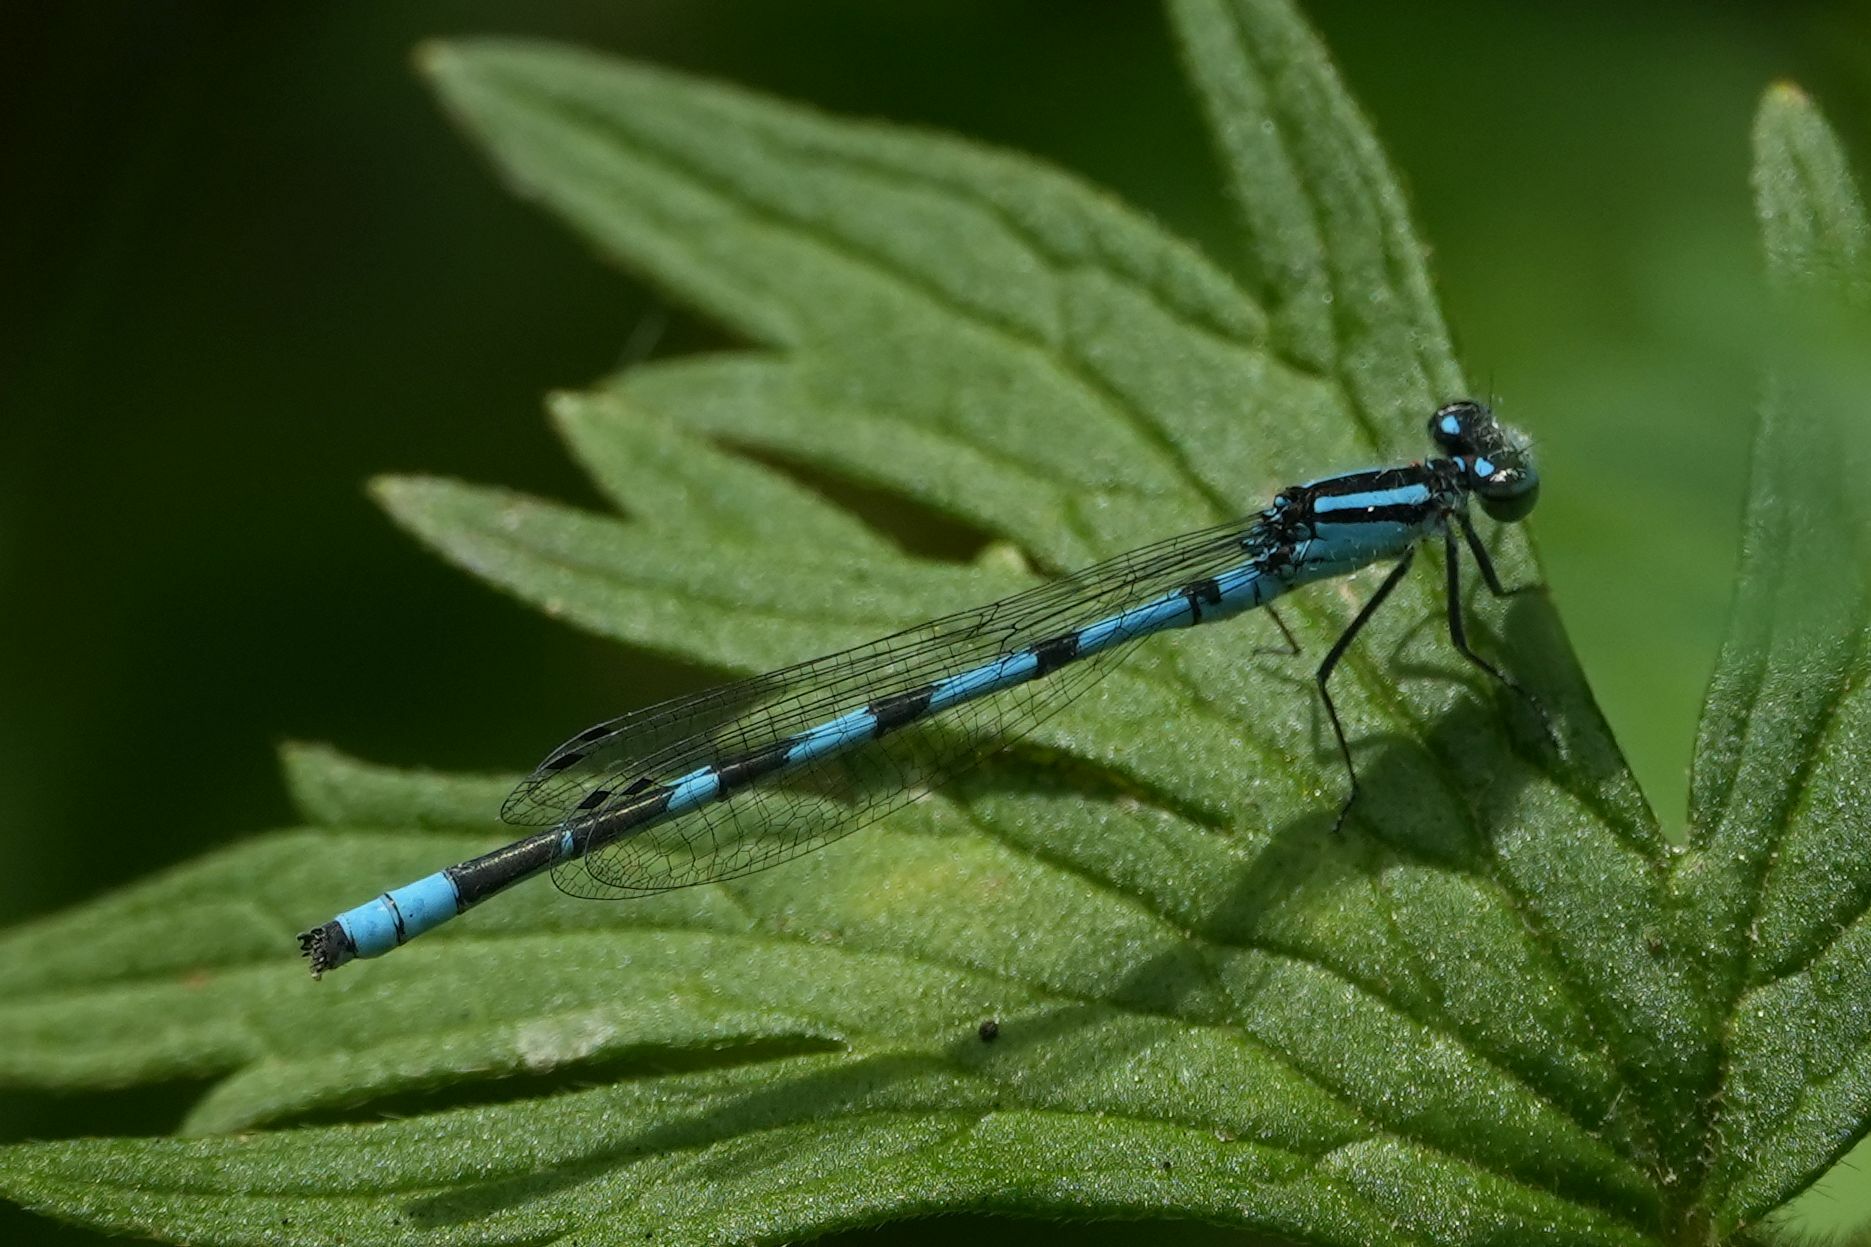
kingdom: Animalia
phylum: Arthropoda
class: Insecta
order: Odonata
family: Coenagrionidae
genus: Enallagma
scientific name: Enallagma ebrium
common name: Marsh bluet
